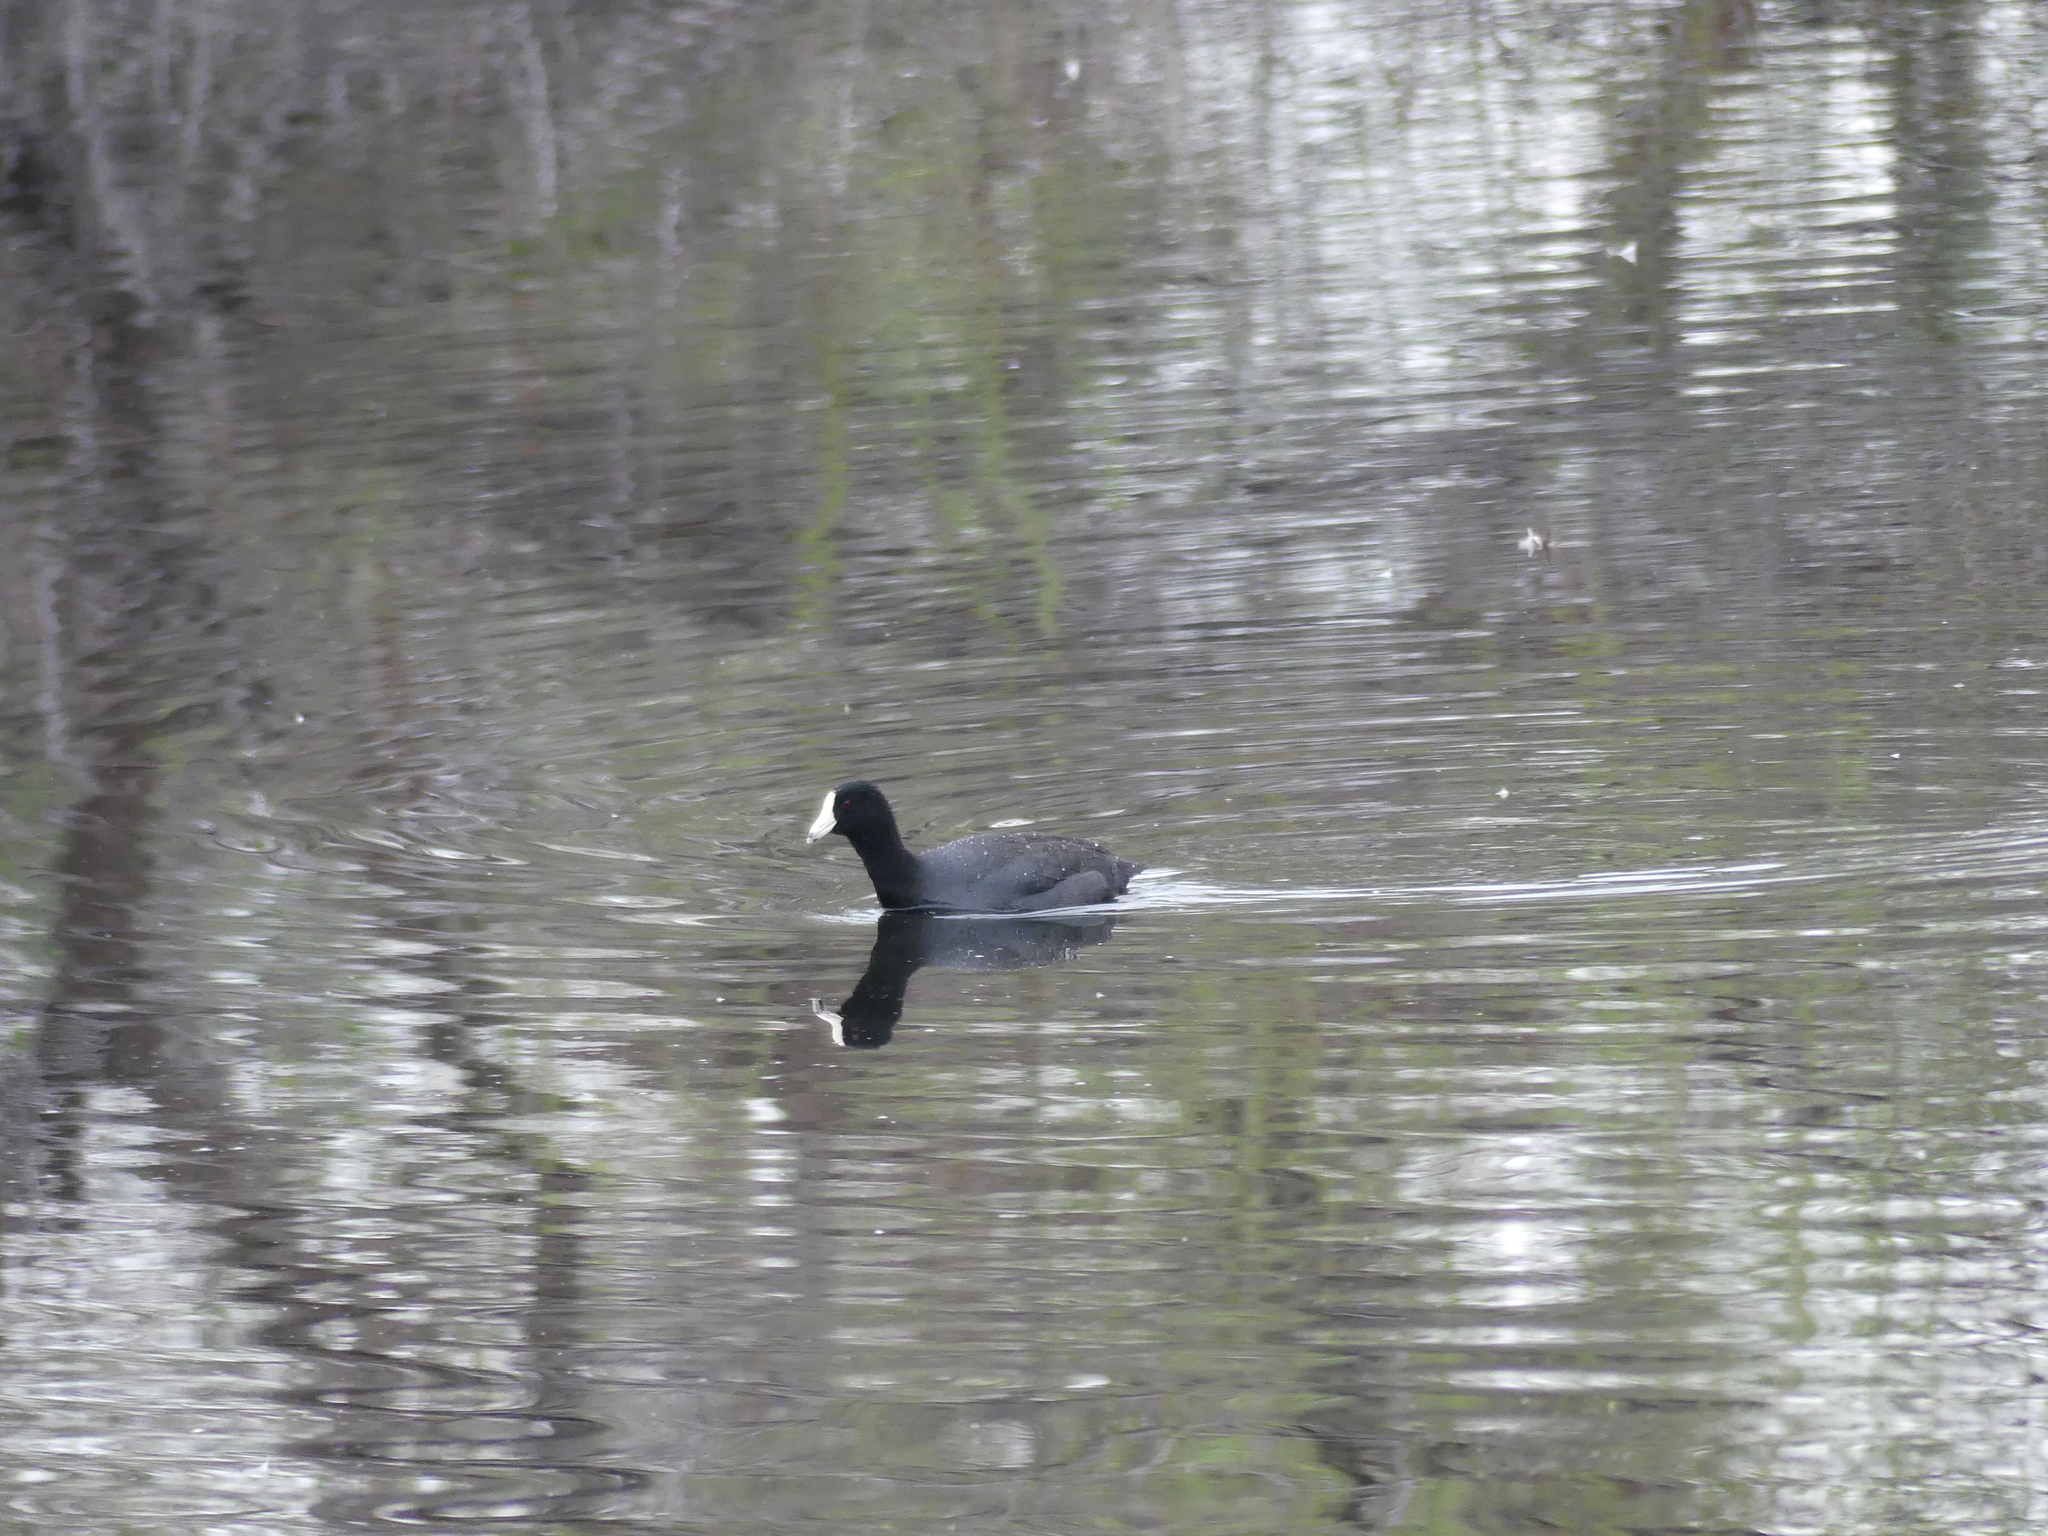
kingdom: Animalia
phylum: Chordata
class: Aves
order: Gruiformes
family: Rallidae
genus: Fulica
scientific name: Fulica americana
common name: American coot
